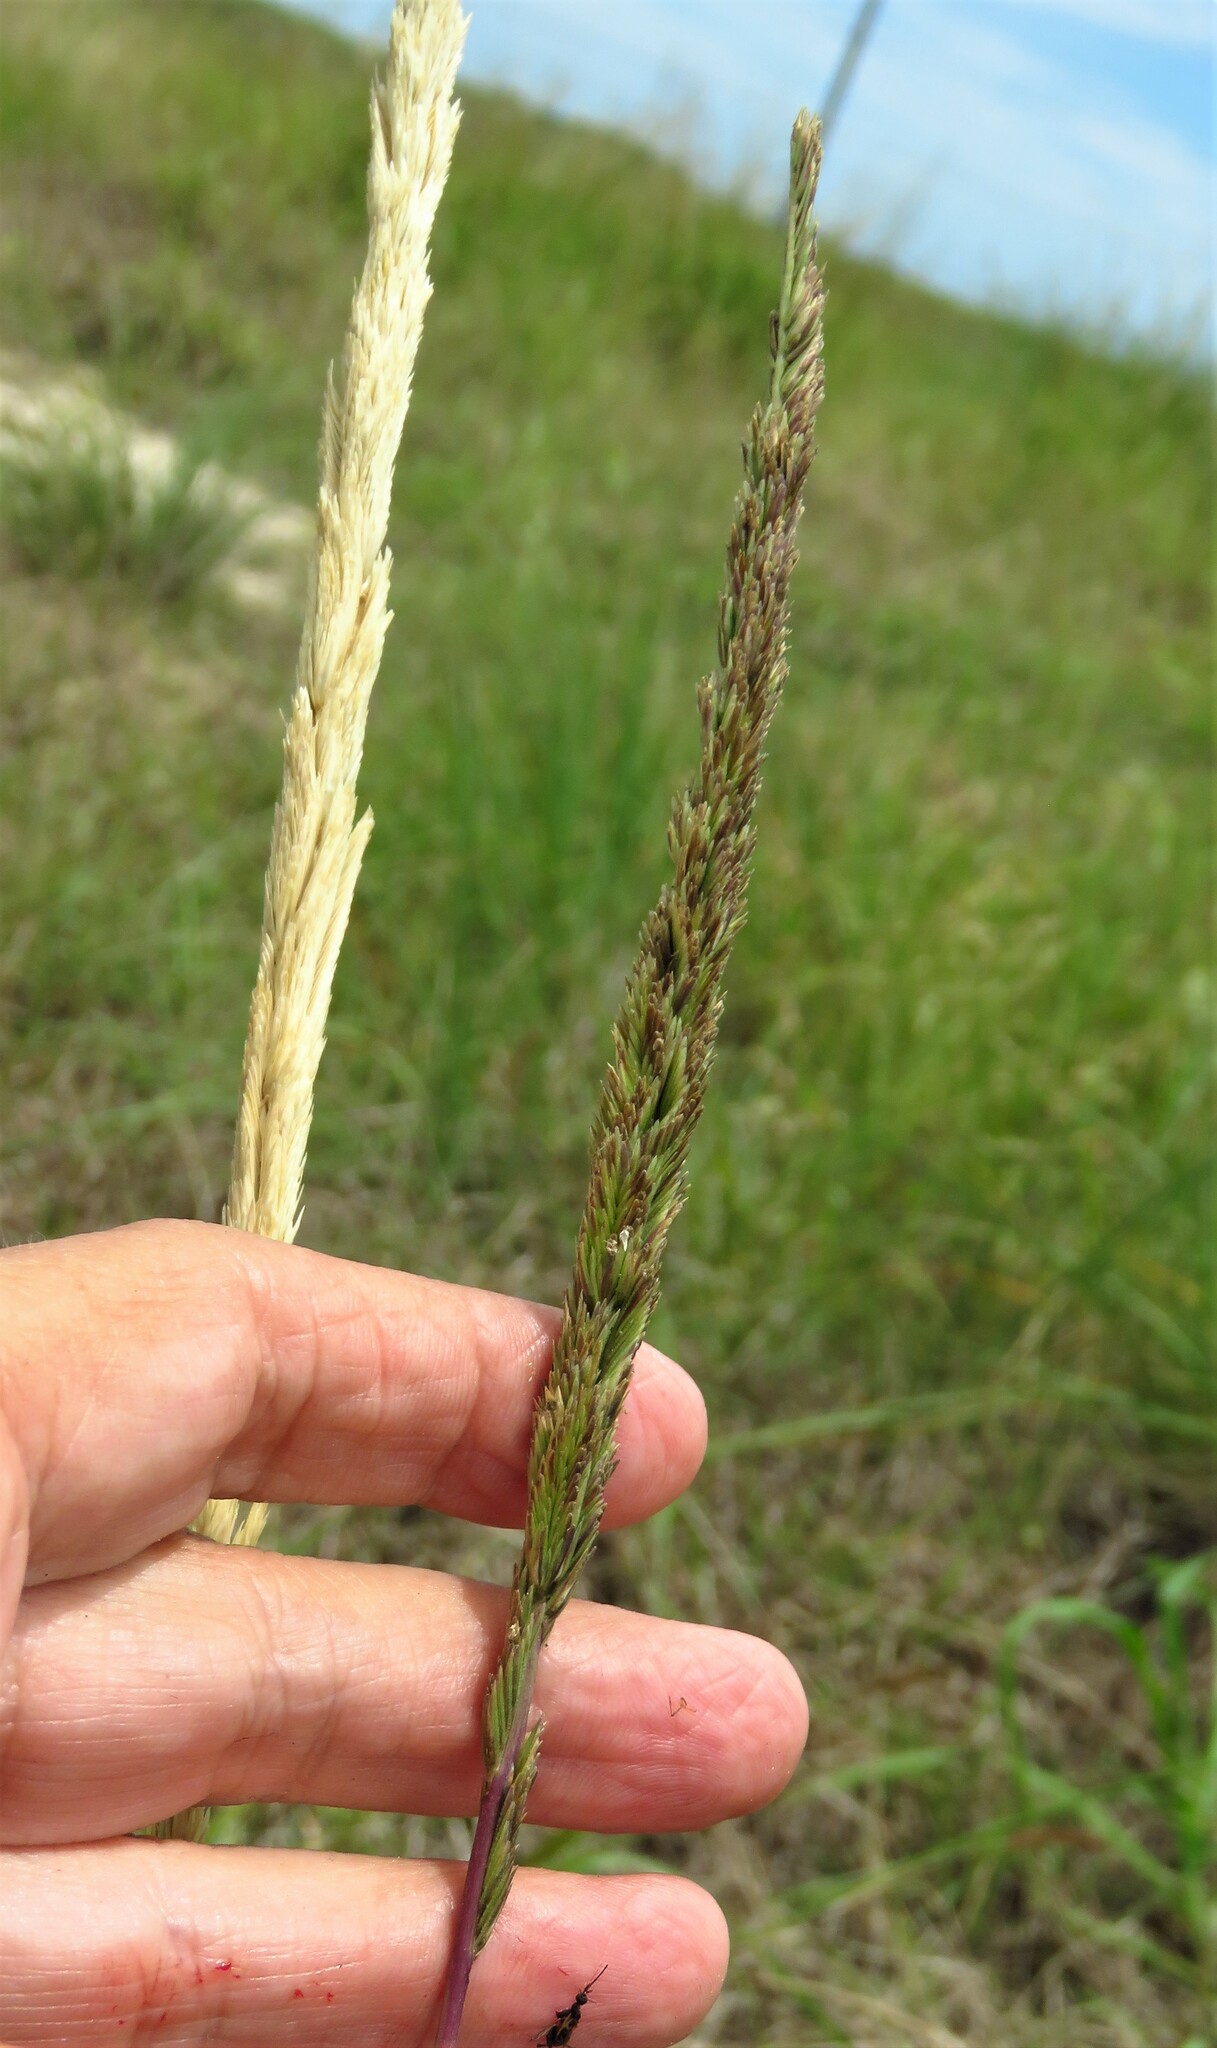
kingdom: Plantae
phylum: Tracheophyta
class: Liliopsida
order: Poales
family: Poaceae
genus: Sporobolus
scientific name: Sporobolus spartinae
